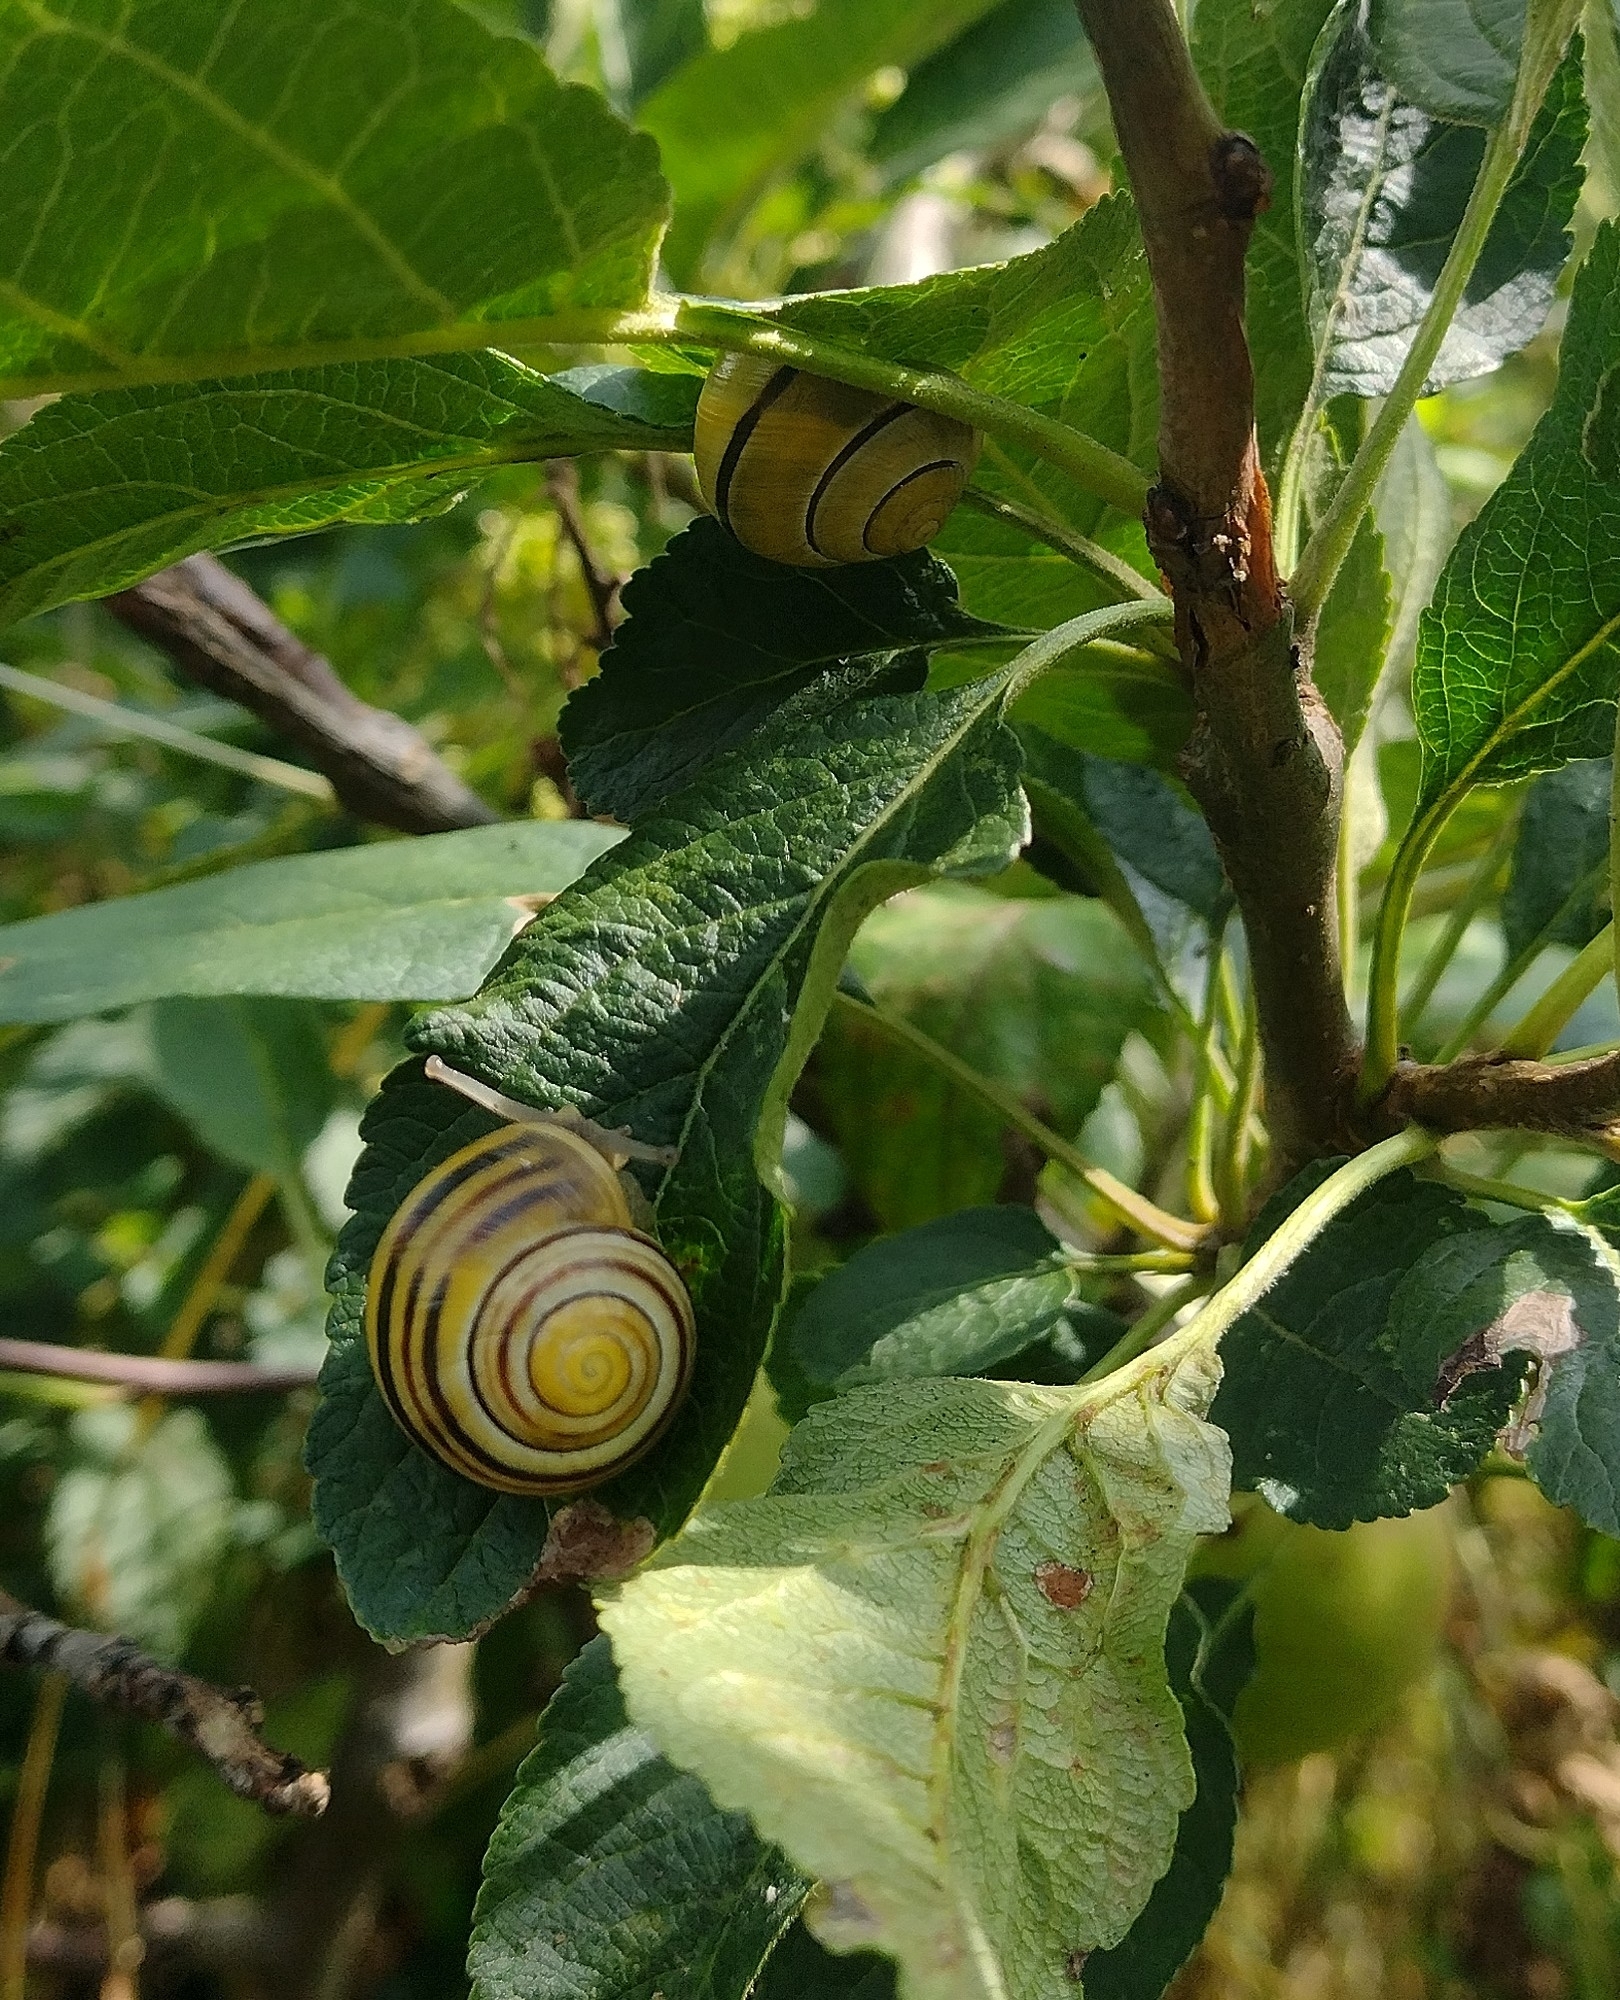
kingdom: Animalia
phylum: Mollusca
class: Gastropoda
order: Stylommatophora
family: Helicidae
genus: Cepaea
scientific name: Cepaea
